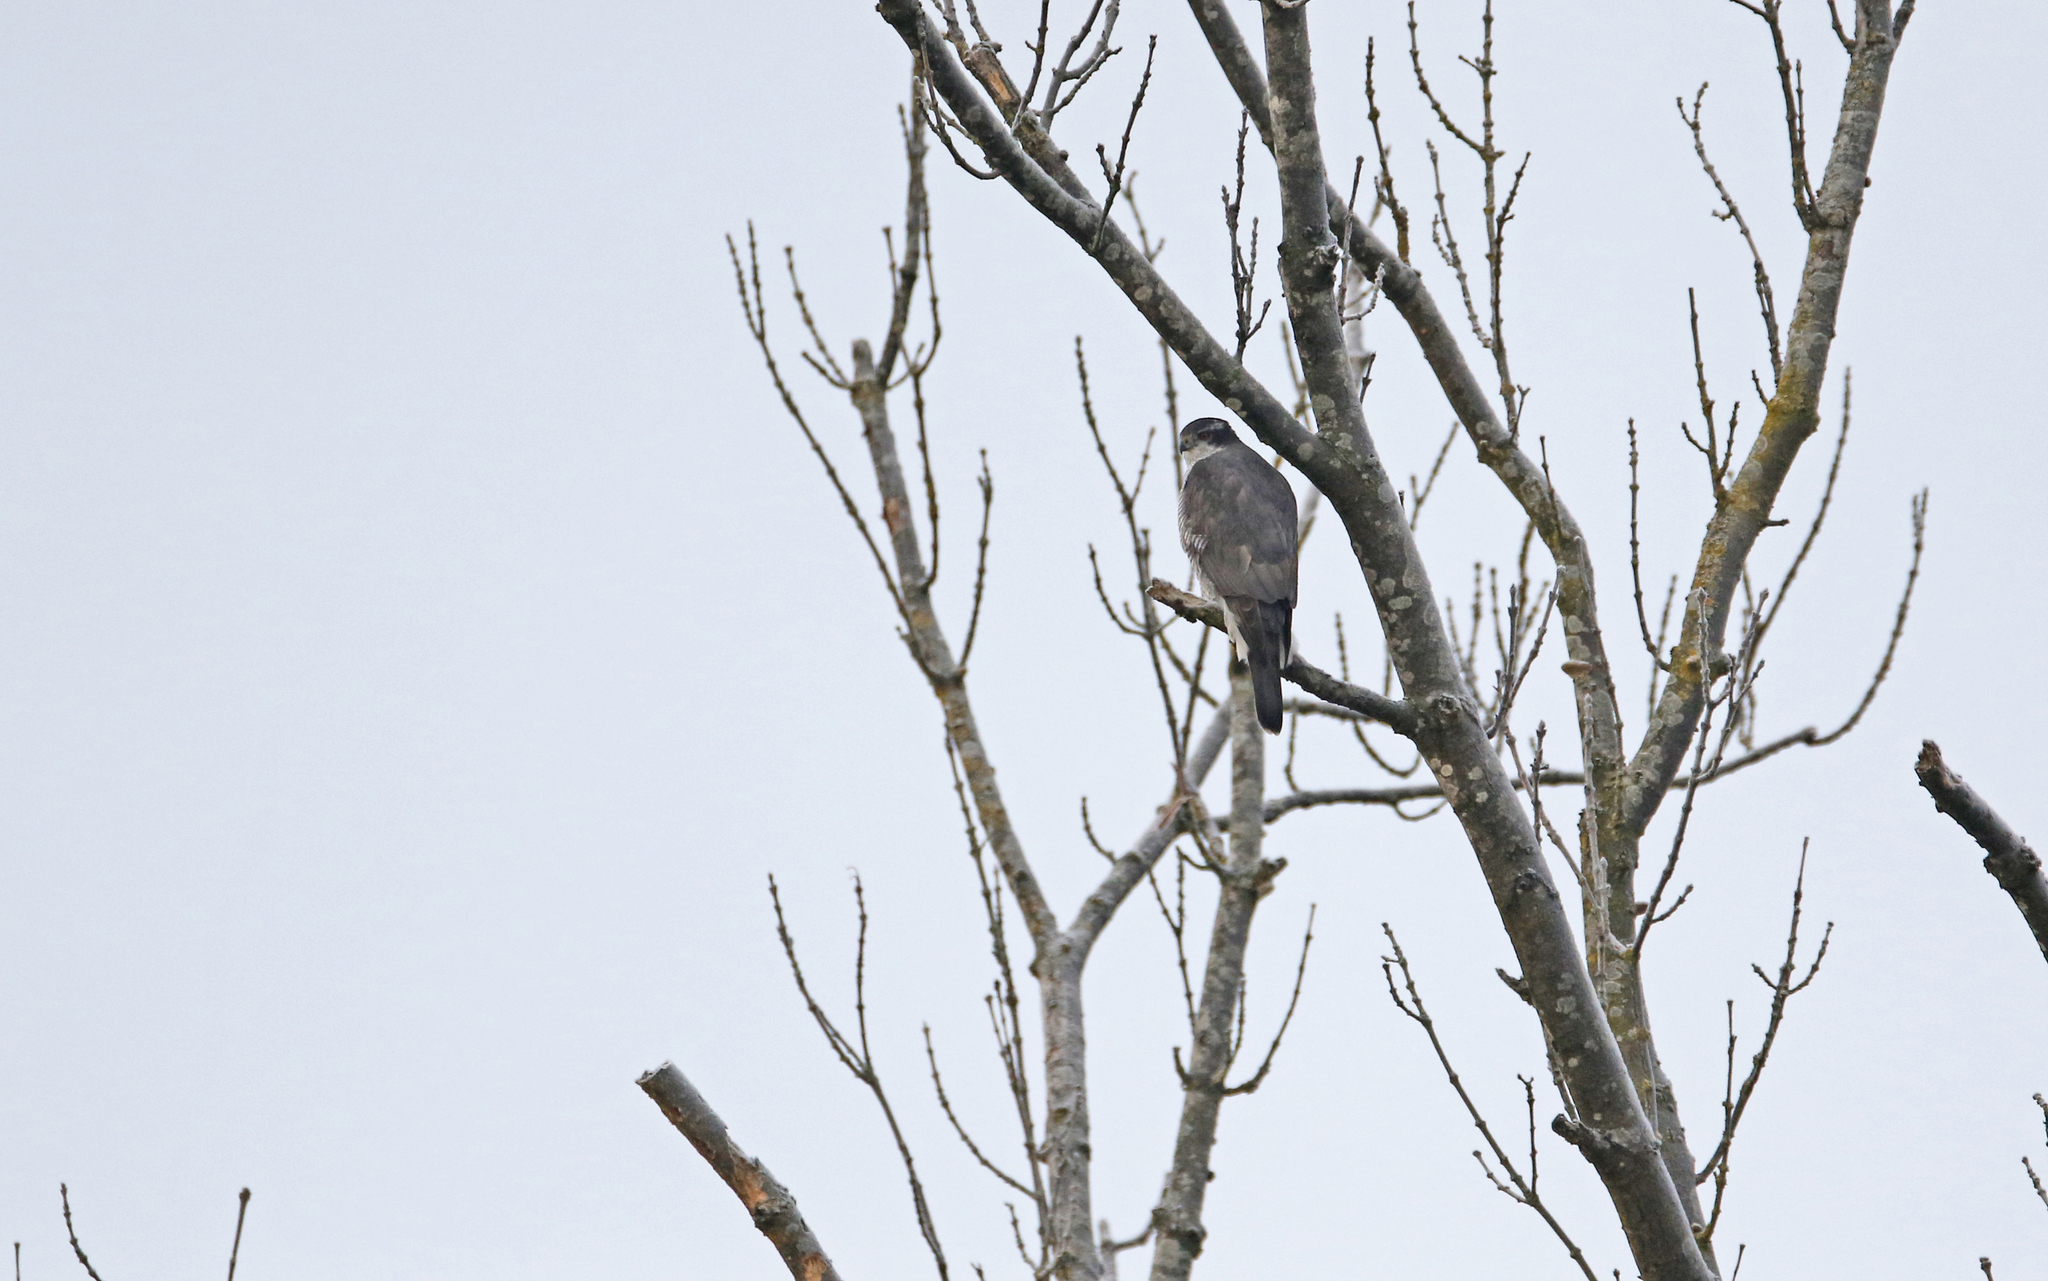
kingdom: Animalia
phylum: Chordata
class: Aves
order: Accipitriformes
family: Accipitridae
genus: Accipiter
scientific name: Accipiter gentilis
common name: Northern goshawk
